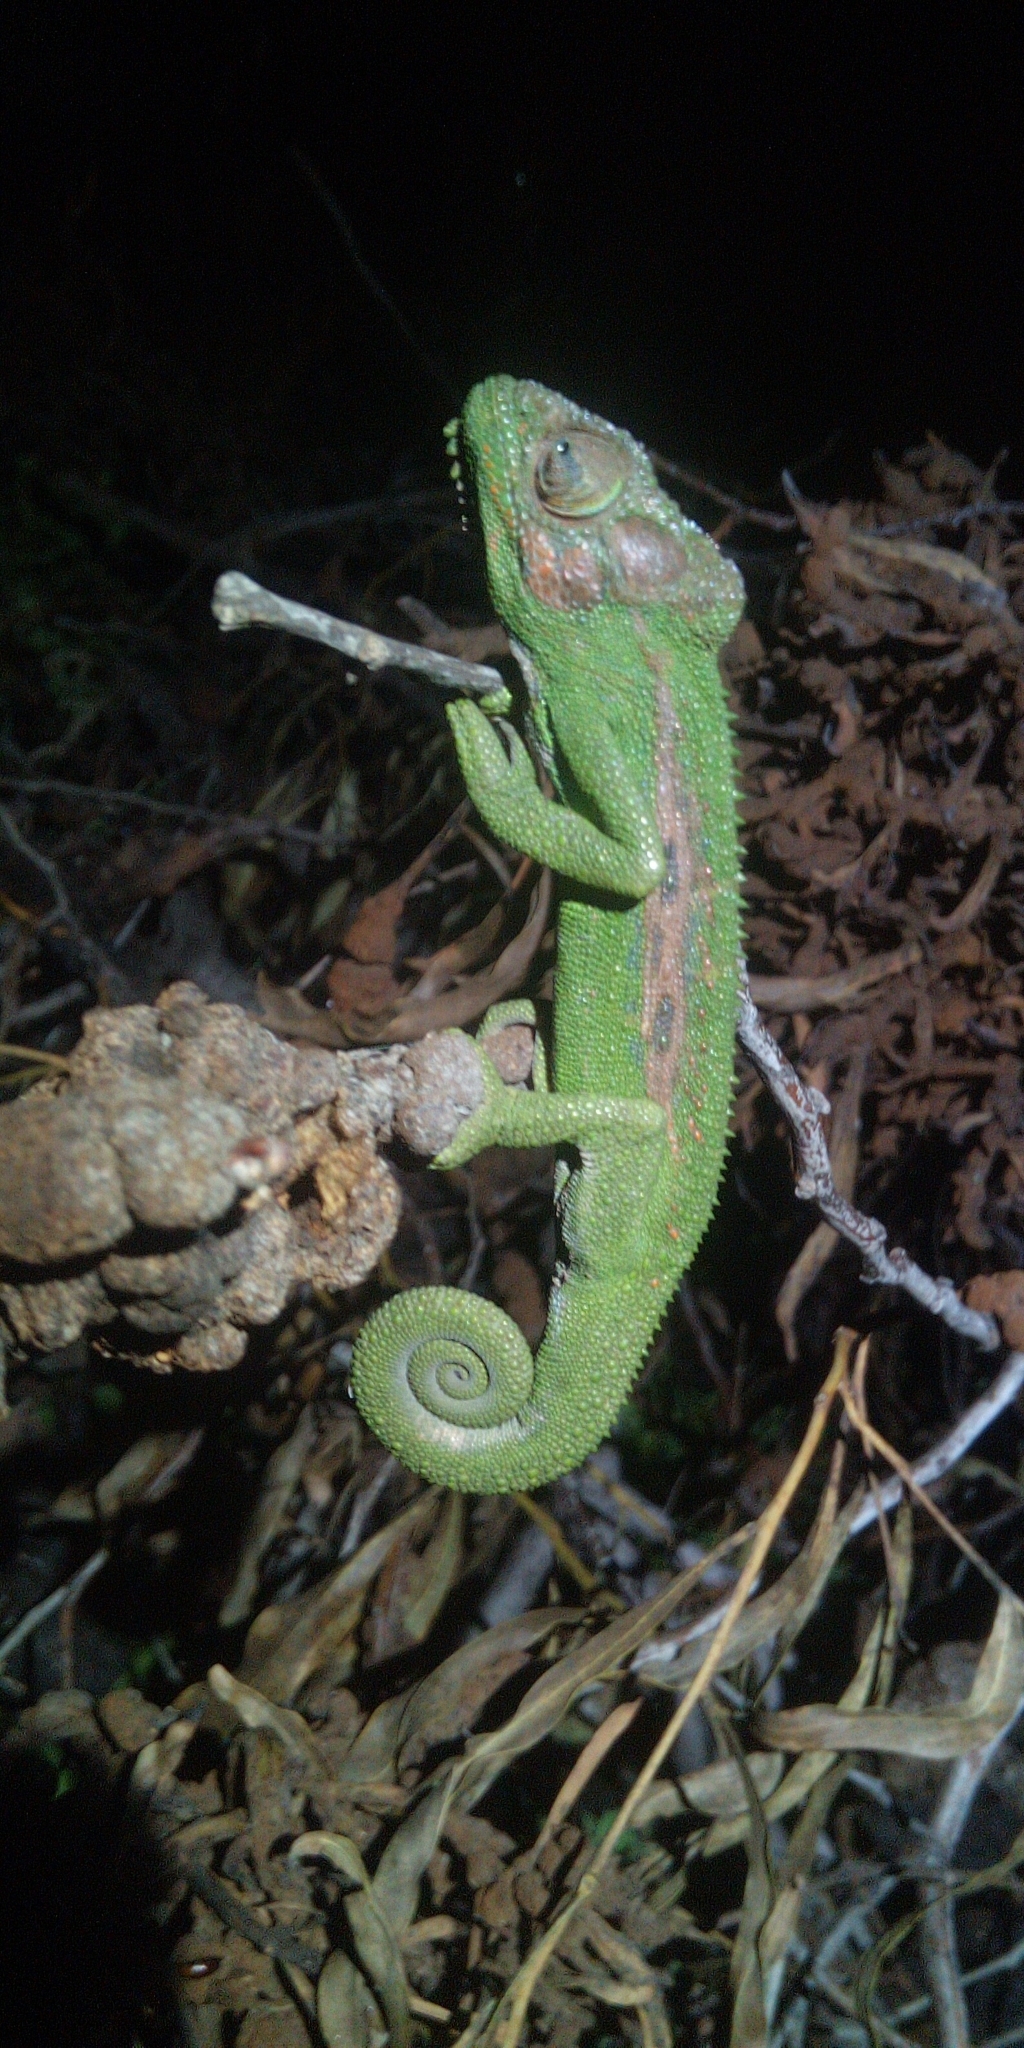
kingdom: Animalia
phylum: Chordata
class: Squamata
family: Chamaeleonidae
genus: Bradypodion
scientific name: Bradypodion pumilum
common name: Cape dwarf chameleon
